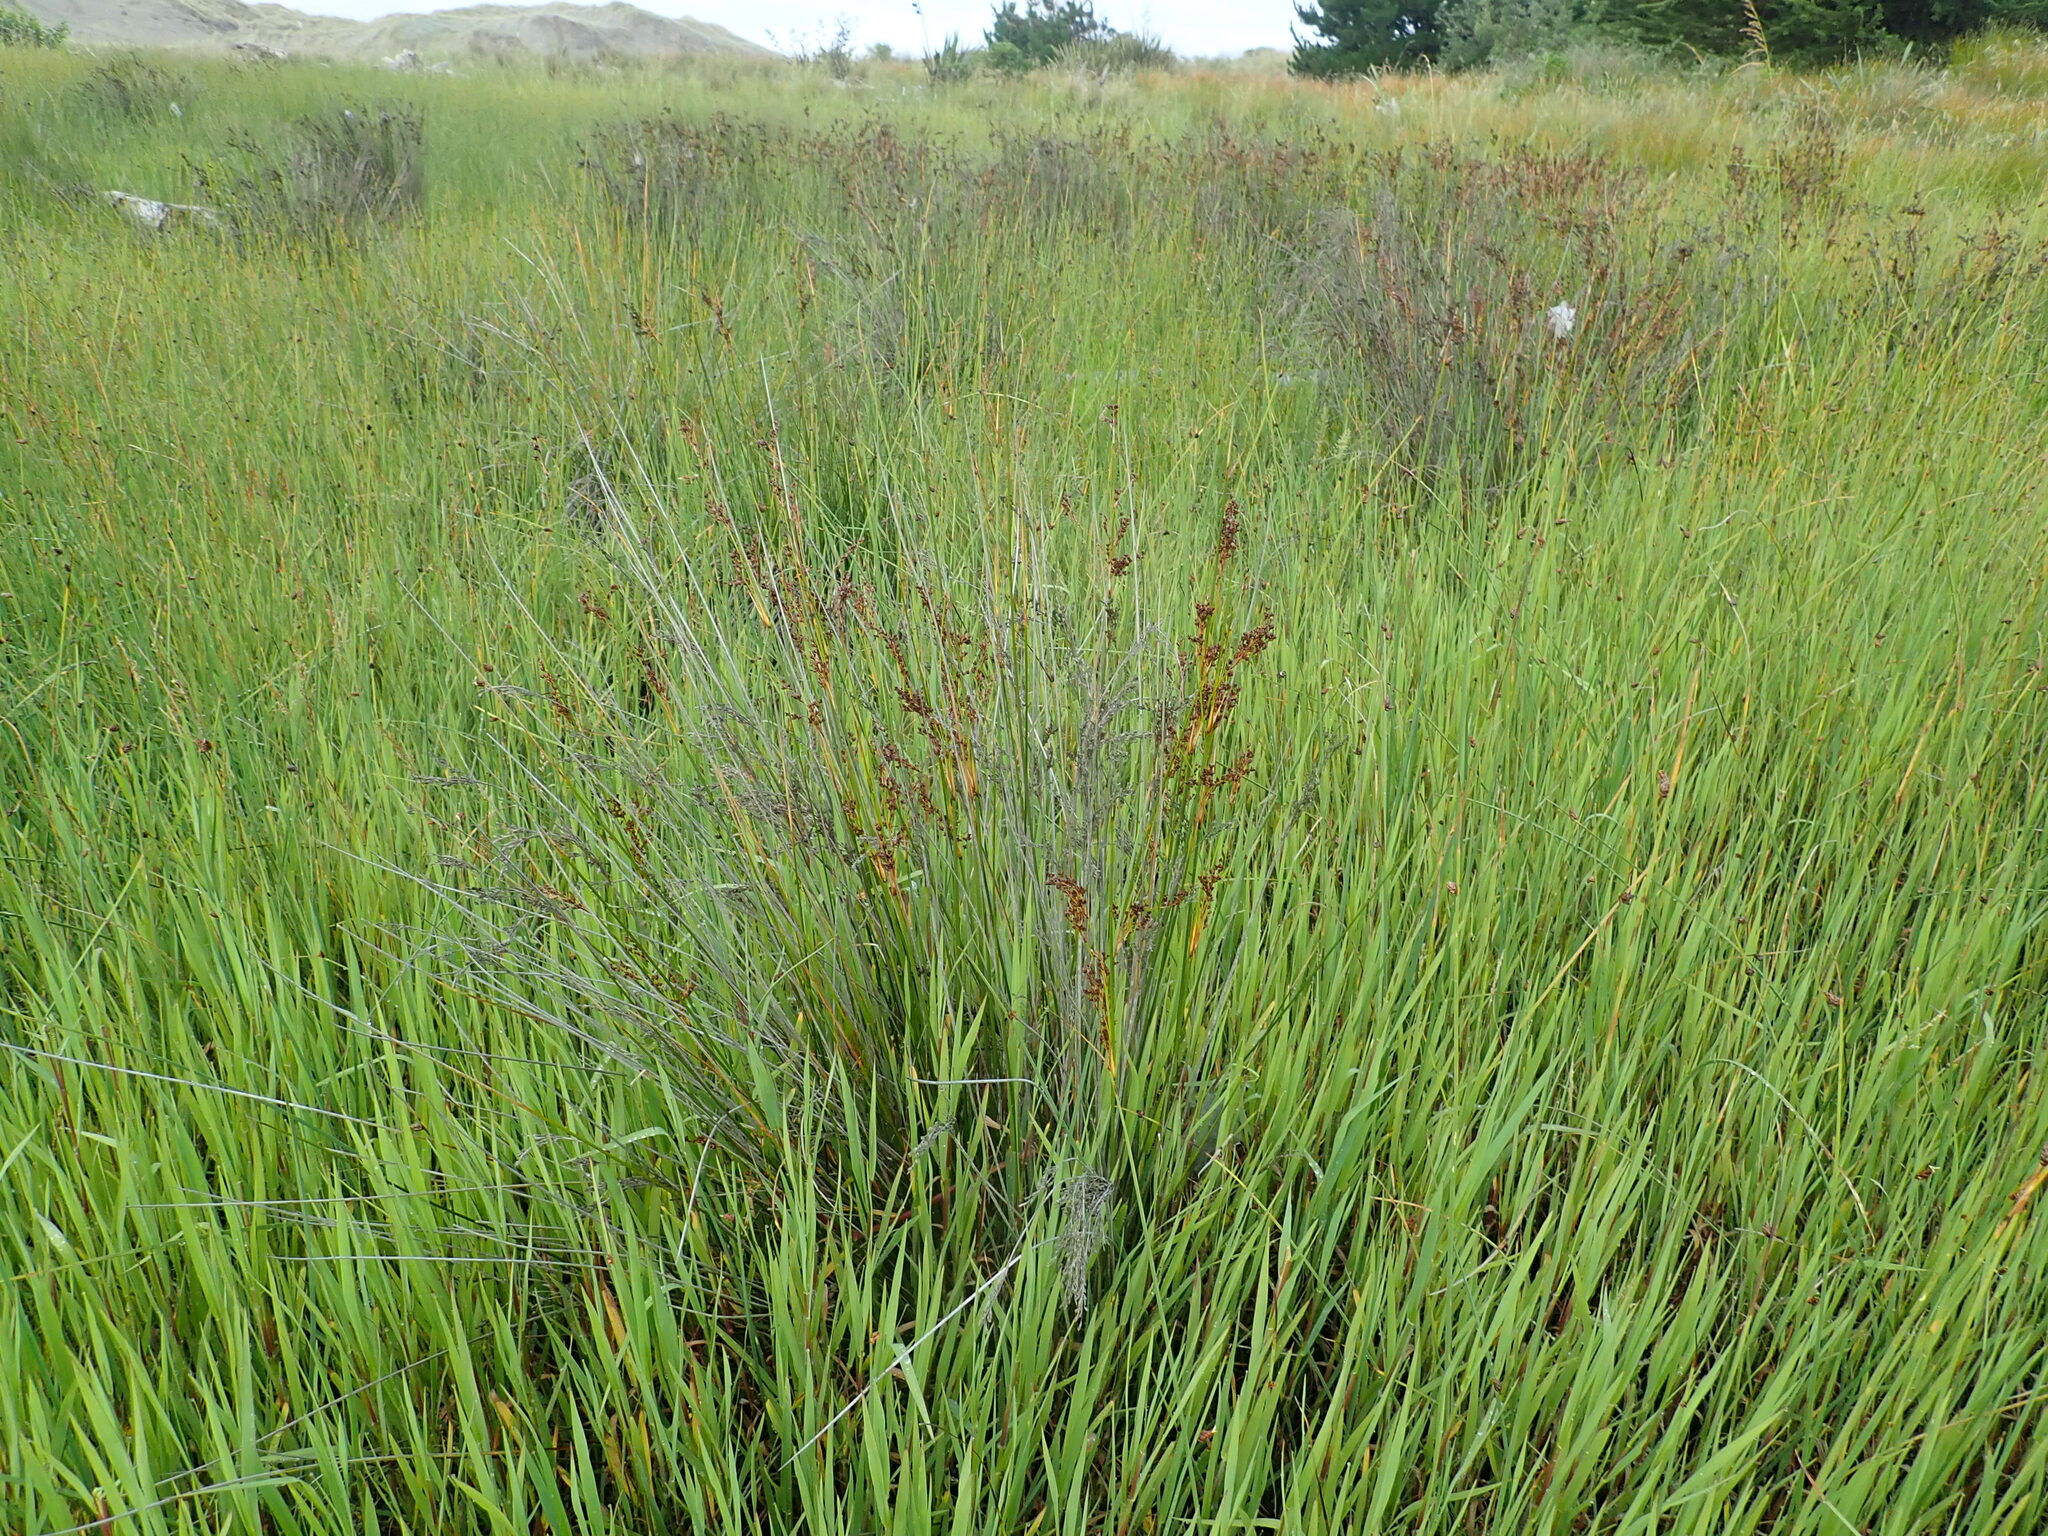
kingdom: Plantae
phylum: Tracheophyta
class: Liliopsida
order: Poales
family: Juncaceae
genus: Juncus
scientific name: Juncus kraussii
